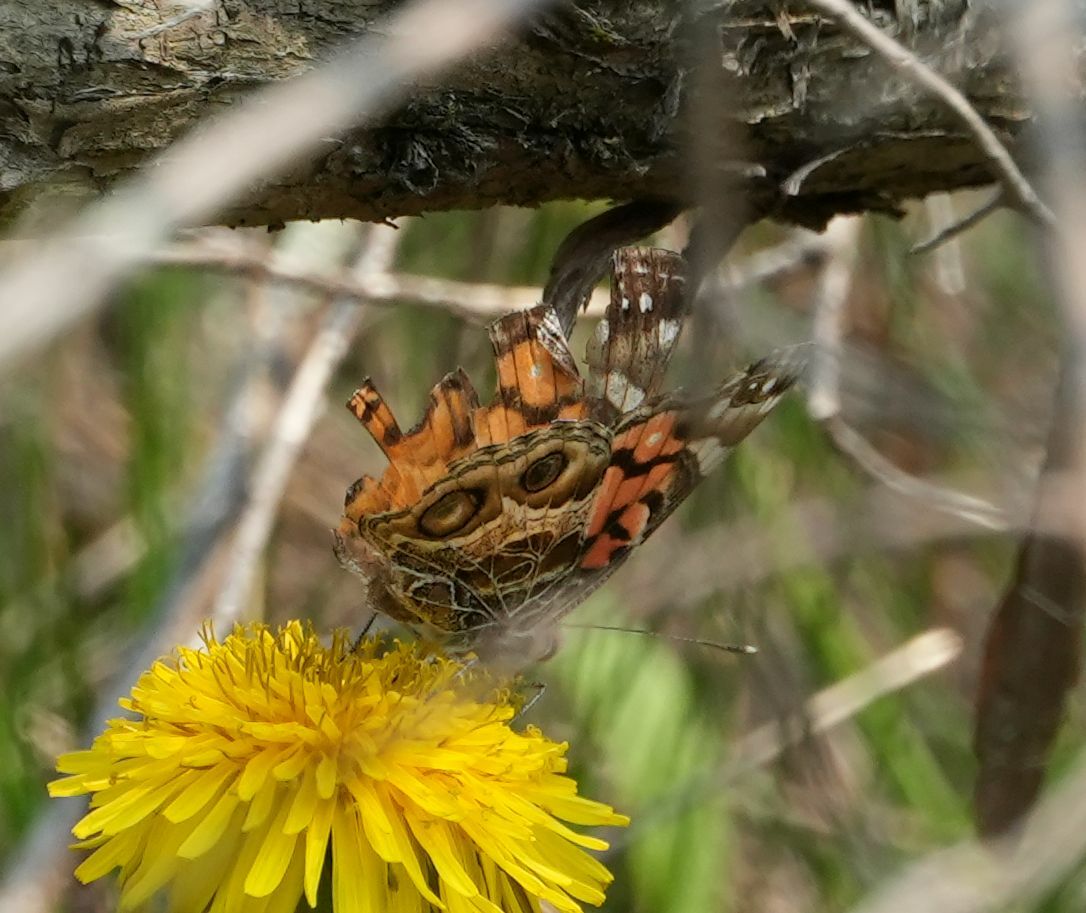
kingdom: Animalia
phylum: Arthropoda
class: Insecta
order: Lepidoptera
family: Nymphalidae
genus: Vanessa
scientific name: Vanessa virginiensis
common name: American lady
